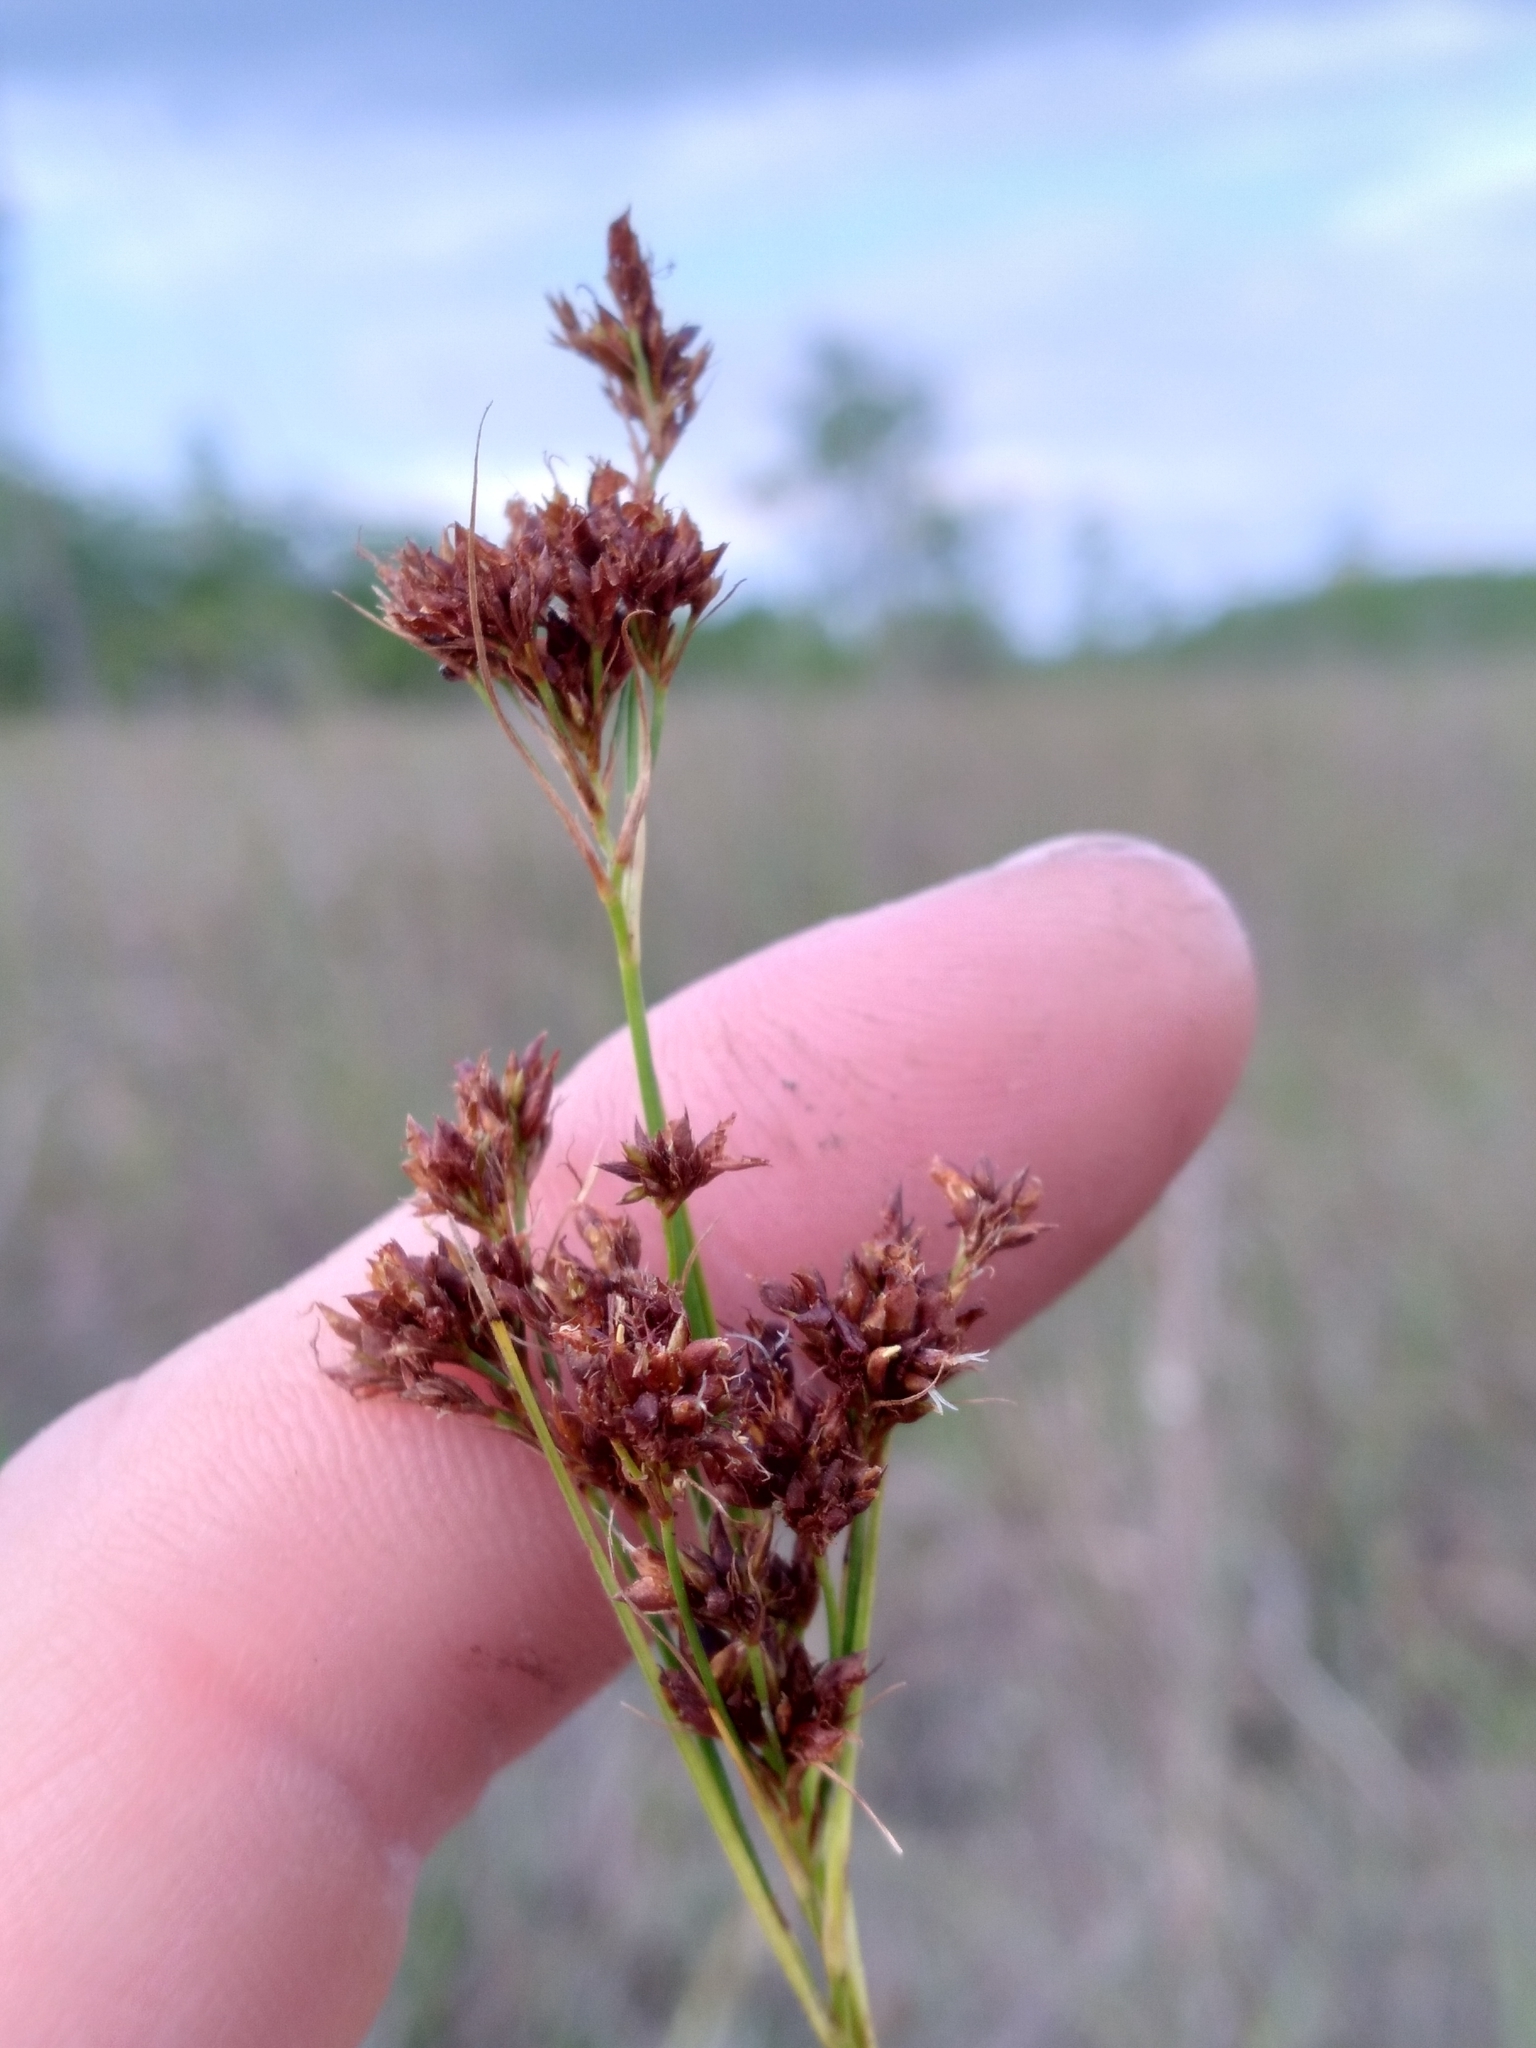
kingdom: Plantae
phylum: Tracheophyta
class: Liliopsida
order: Poales
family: Cyperaceae
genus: Rhynchospora
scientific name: Rhynchospora microcarpa
